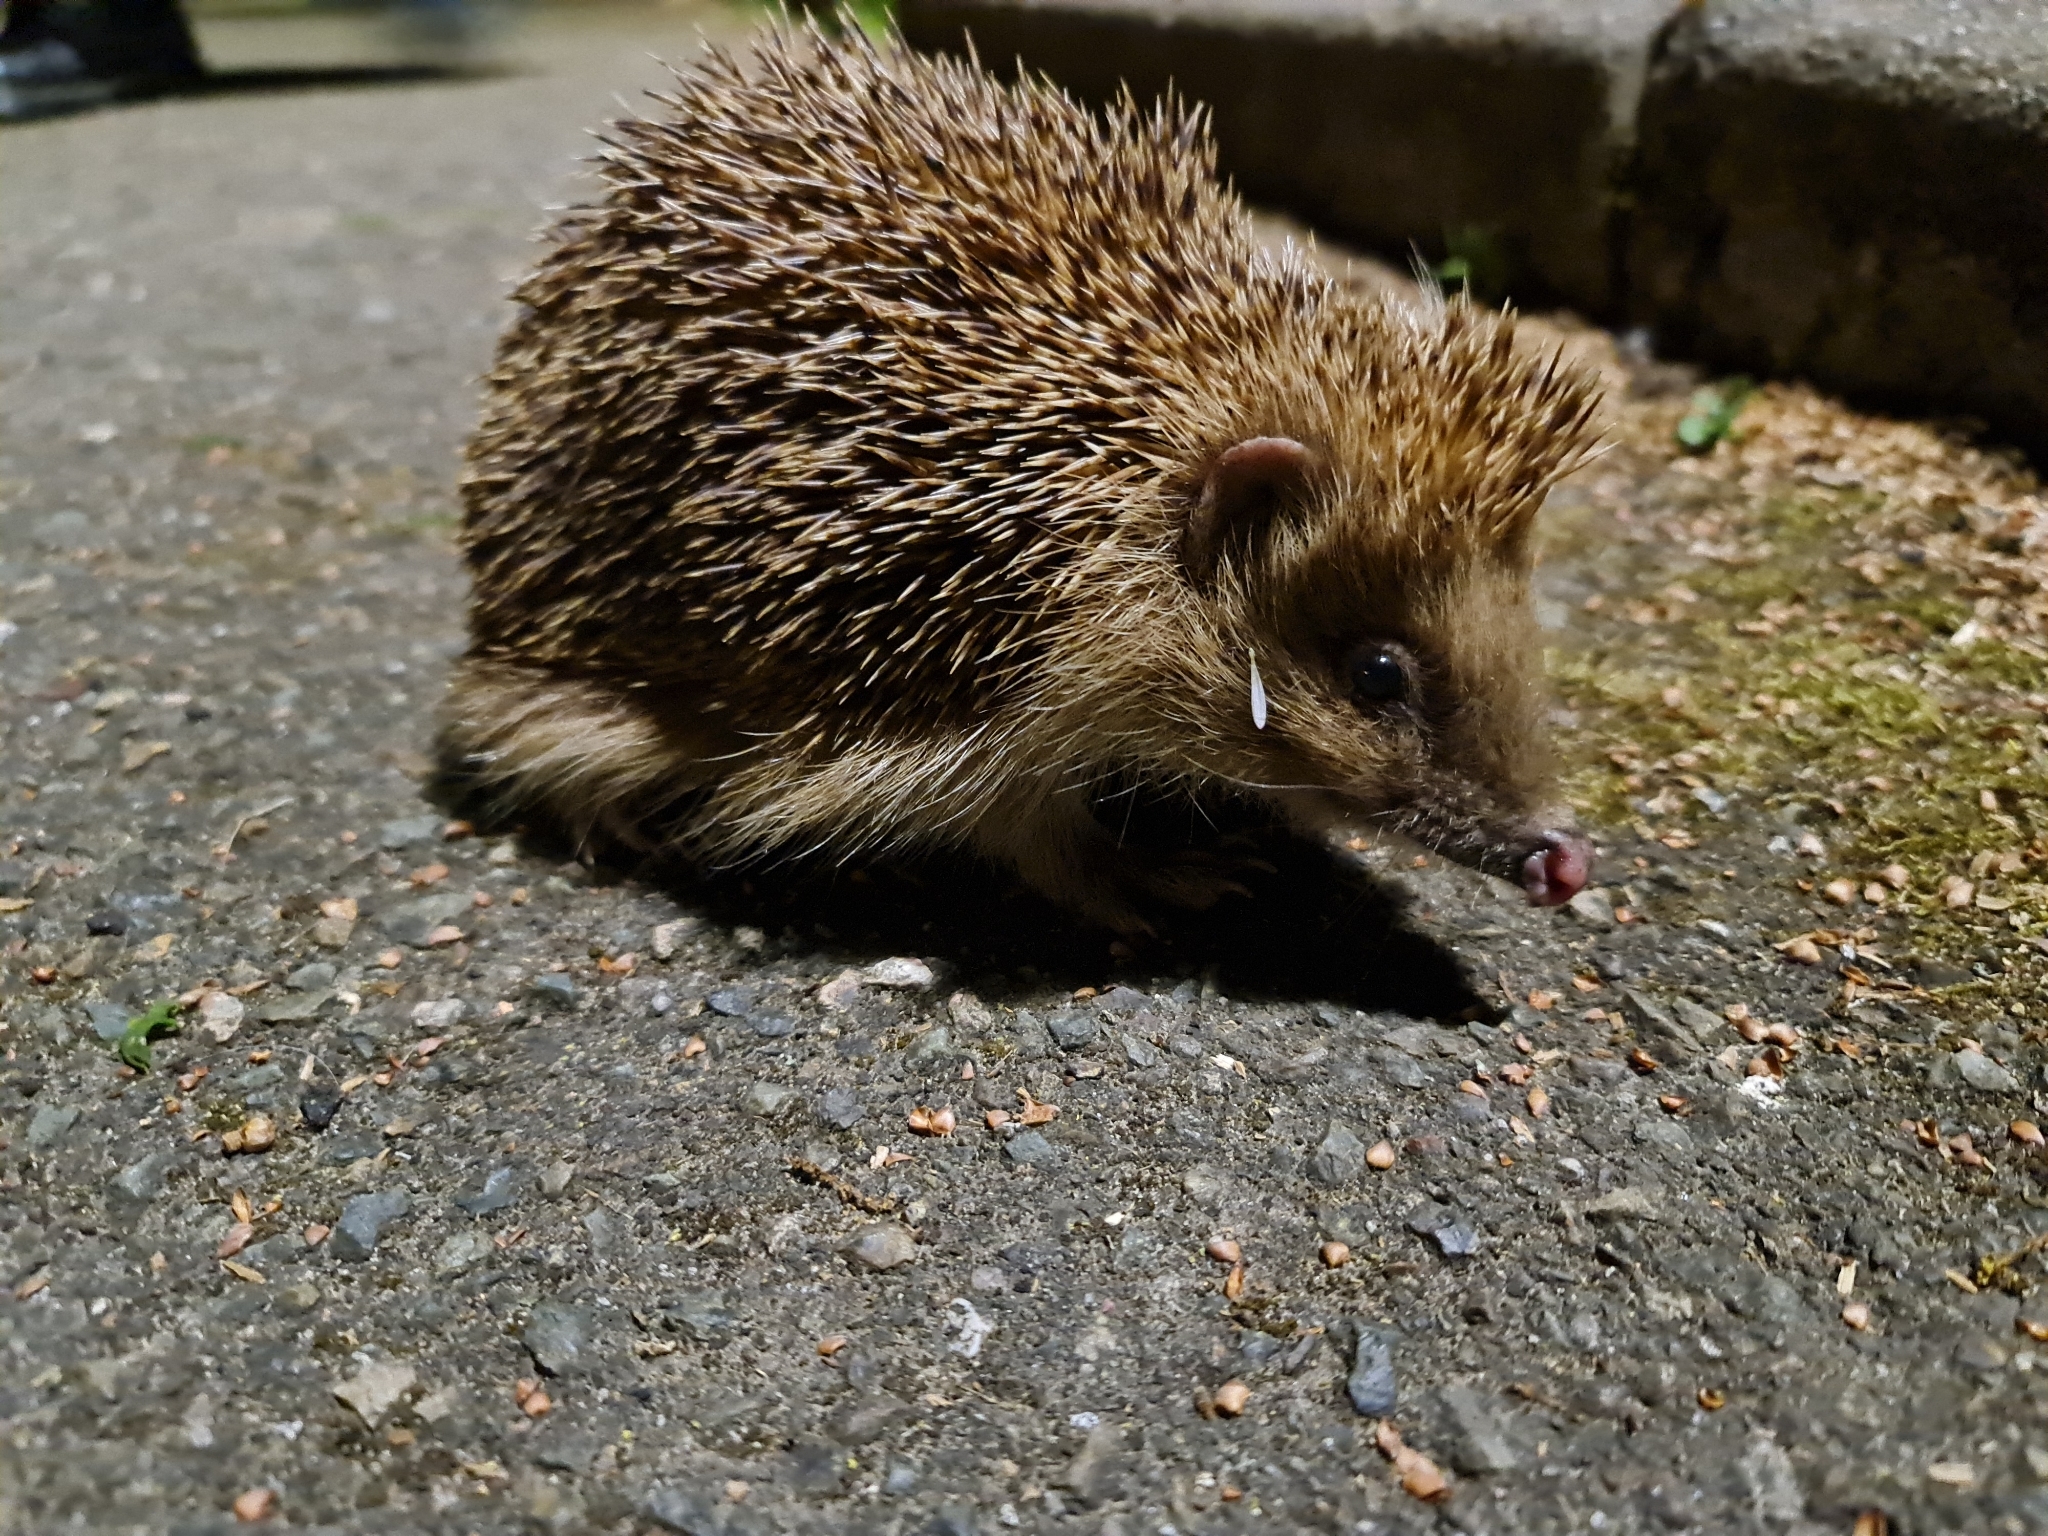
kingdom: Animalia
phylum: Chordata
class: Mammalia
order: Erinaceomorpha
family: Erinaceidae
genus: Erinaceus
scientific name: Erinaceus europaeus
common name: West european hedgehog
